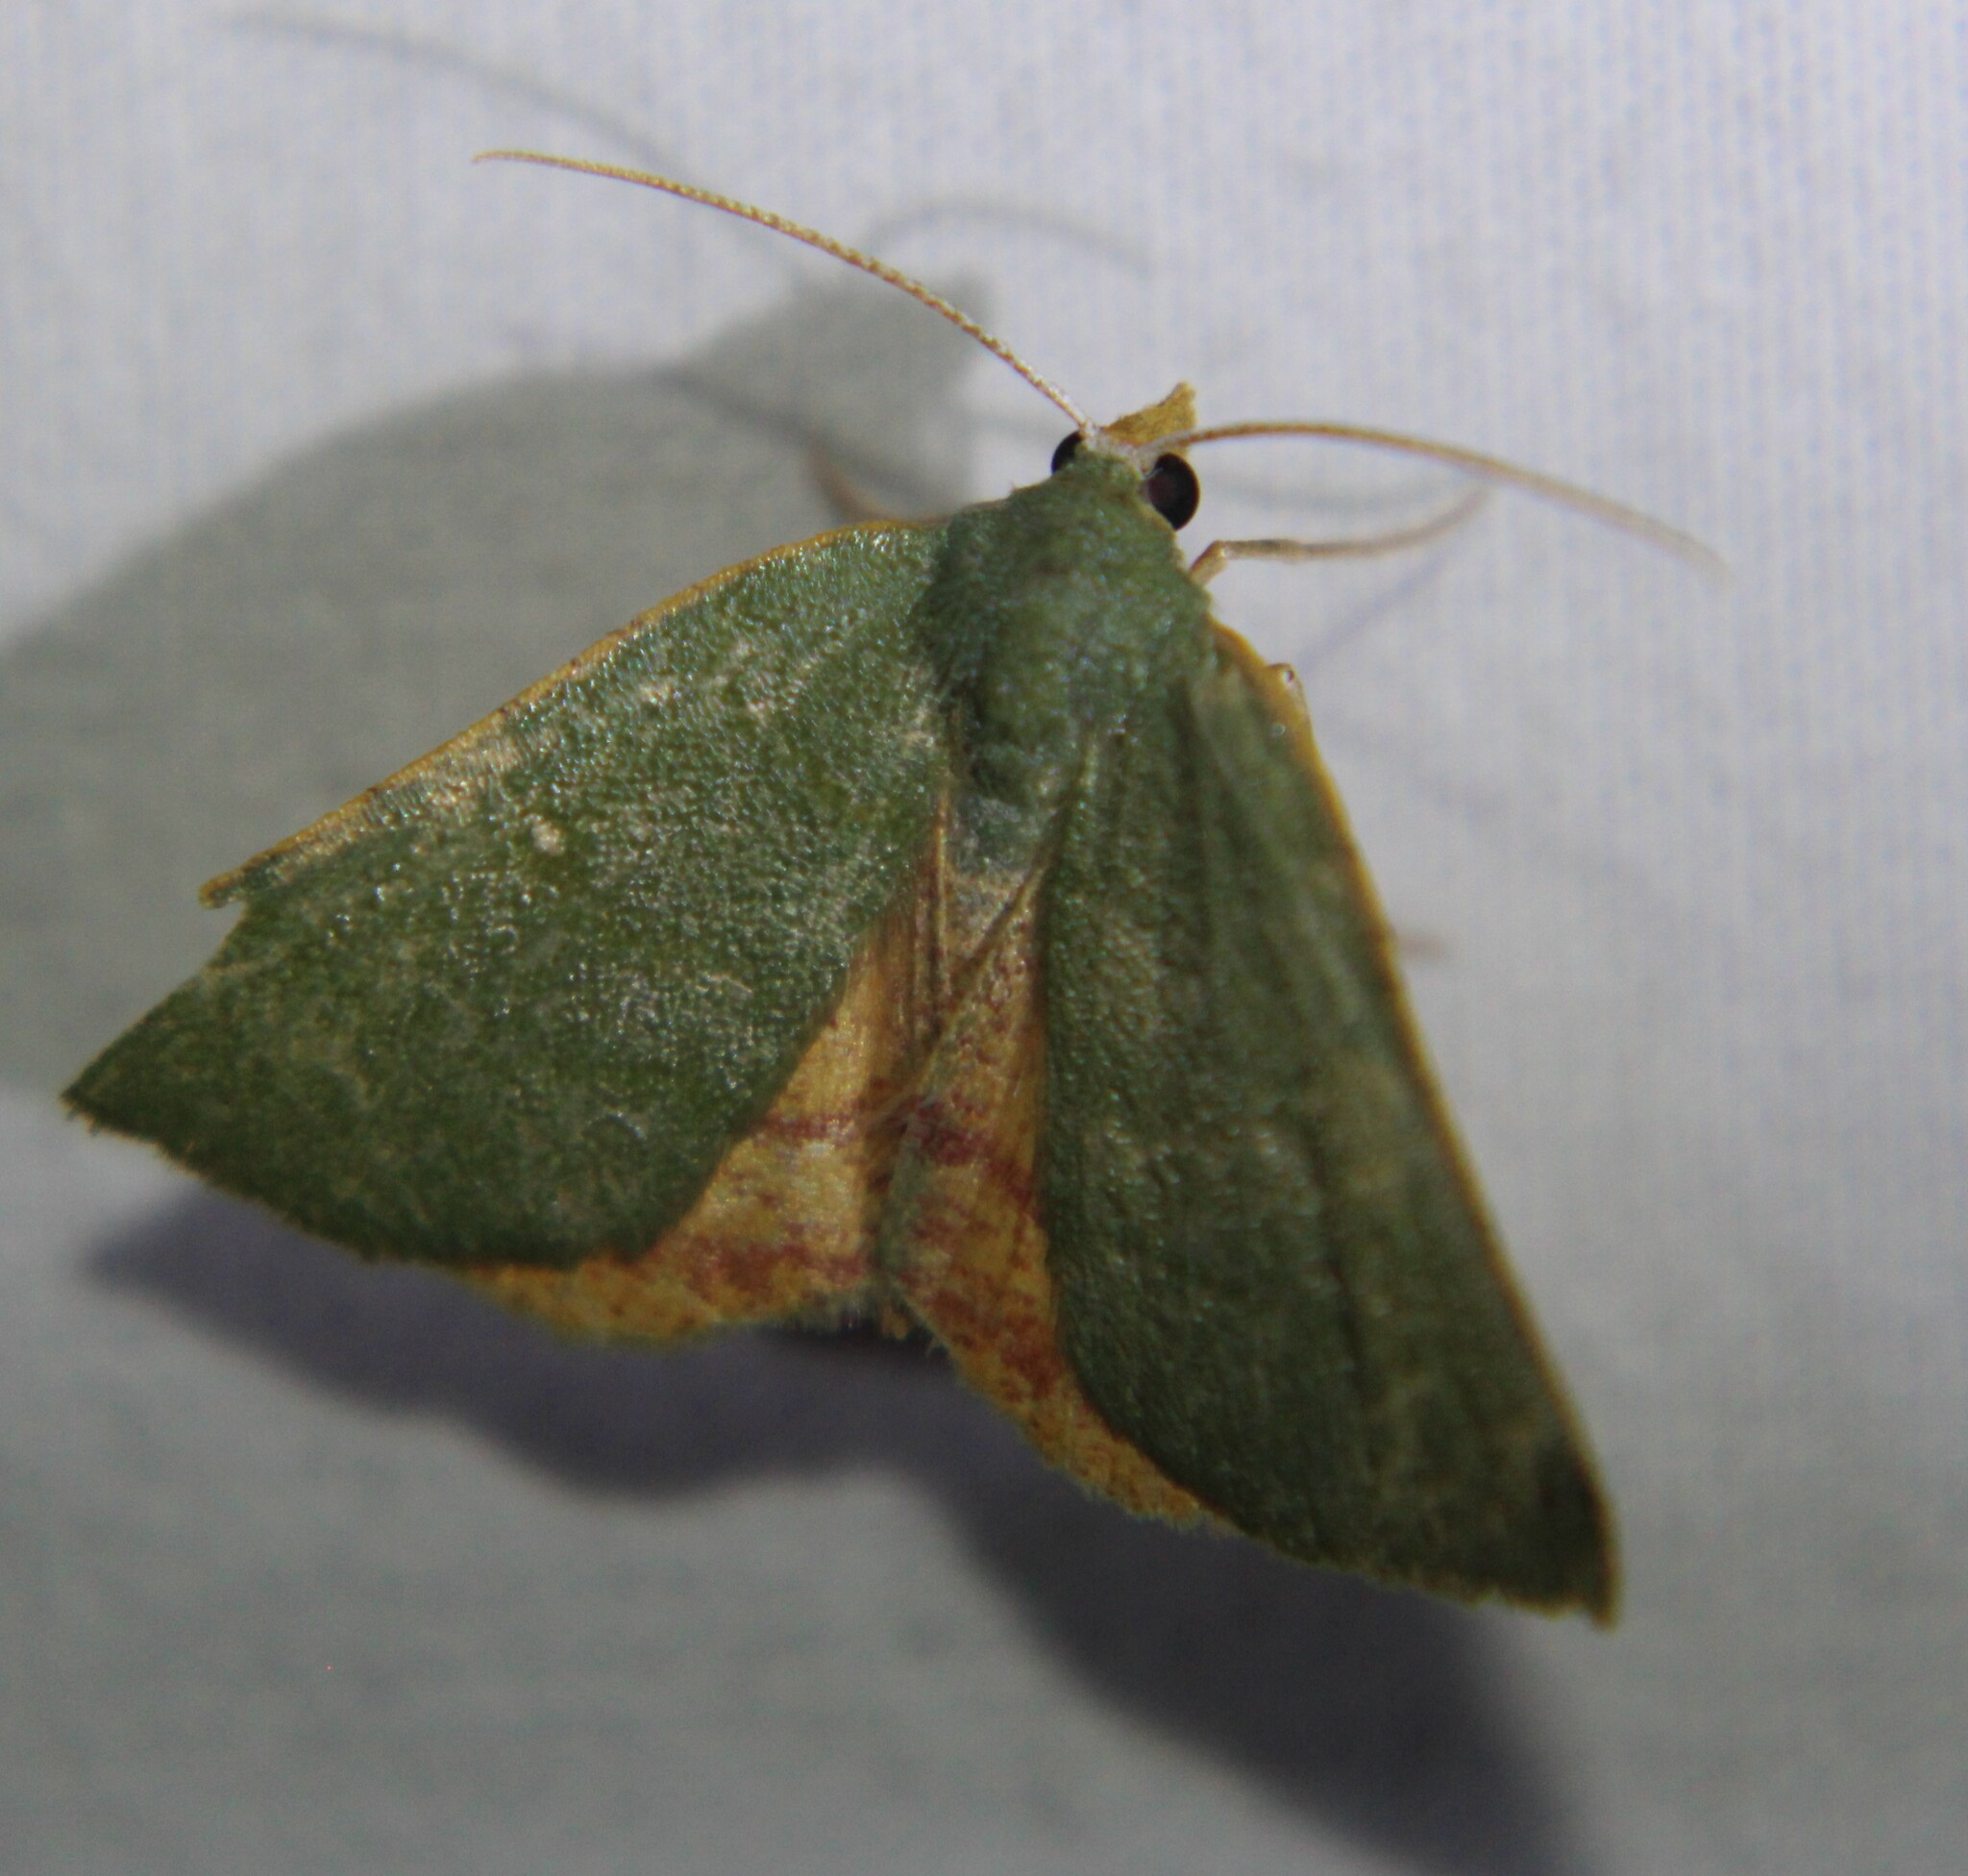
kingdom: Animalia
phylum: Arthropoda
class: Insecta
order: Lepidoptera
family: Geometridae
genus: Chloraspilates
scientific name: Chloraspilates bicoloraria
